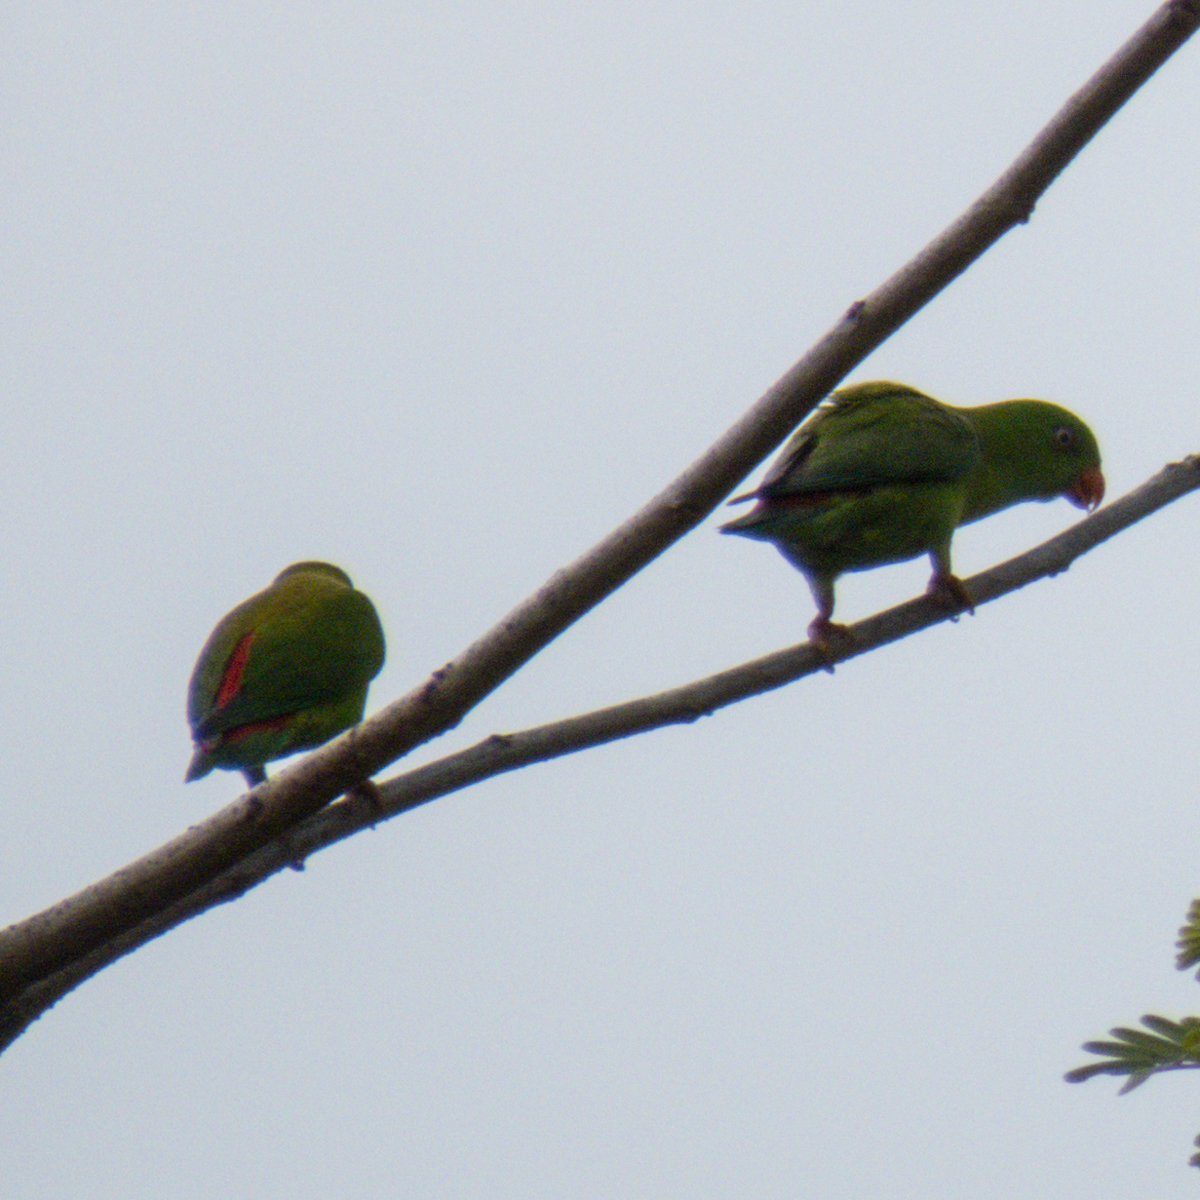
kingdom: Animalia
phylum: Chordata
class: Aves
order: Psittaciformes
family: Psittacidae
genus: Loriculus
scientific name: Loriculus vernalis
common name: Vernal hanging parrot
